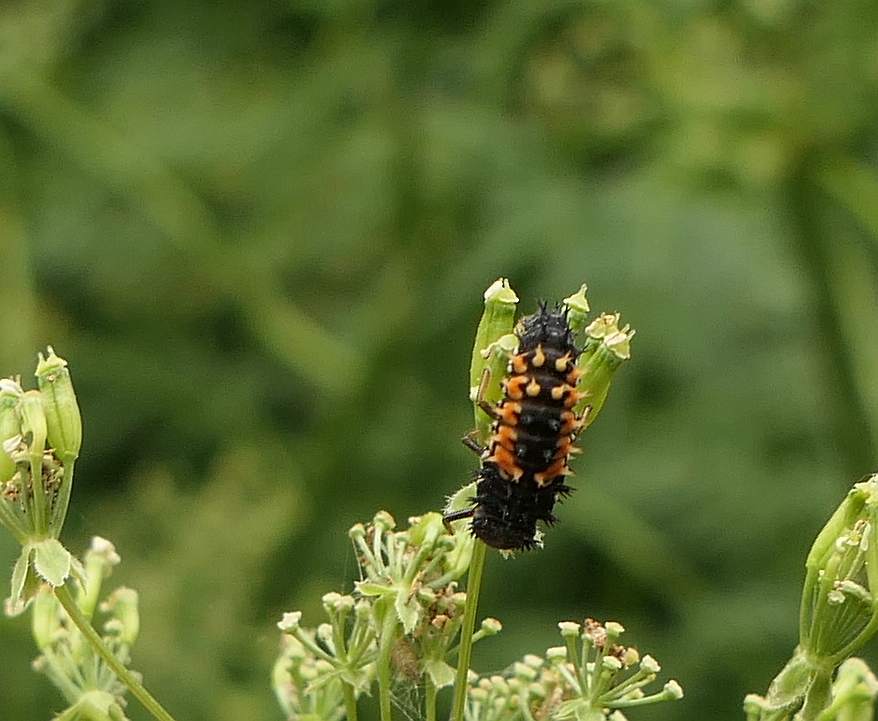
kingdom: Animalia
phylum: Arthropoda
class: Insecta
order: Coleoptera
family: Coccinellidae
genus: Harmonia
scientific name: Harmonia axyridis
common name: Harlequin ladybird
